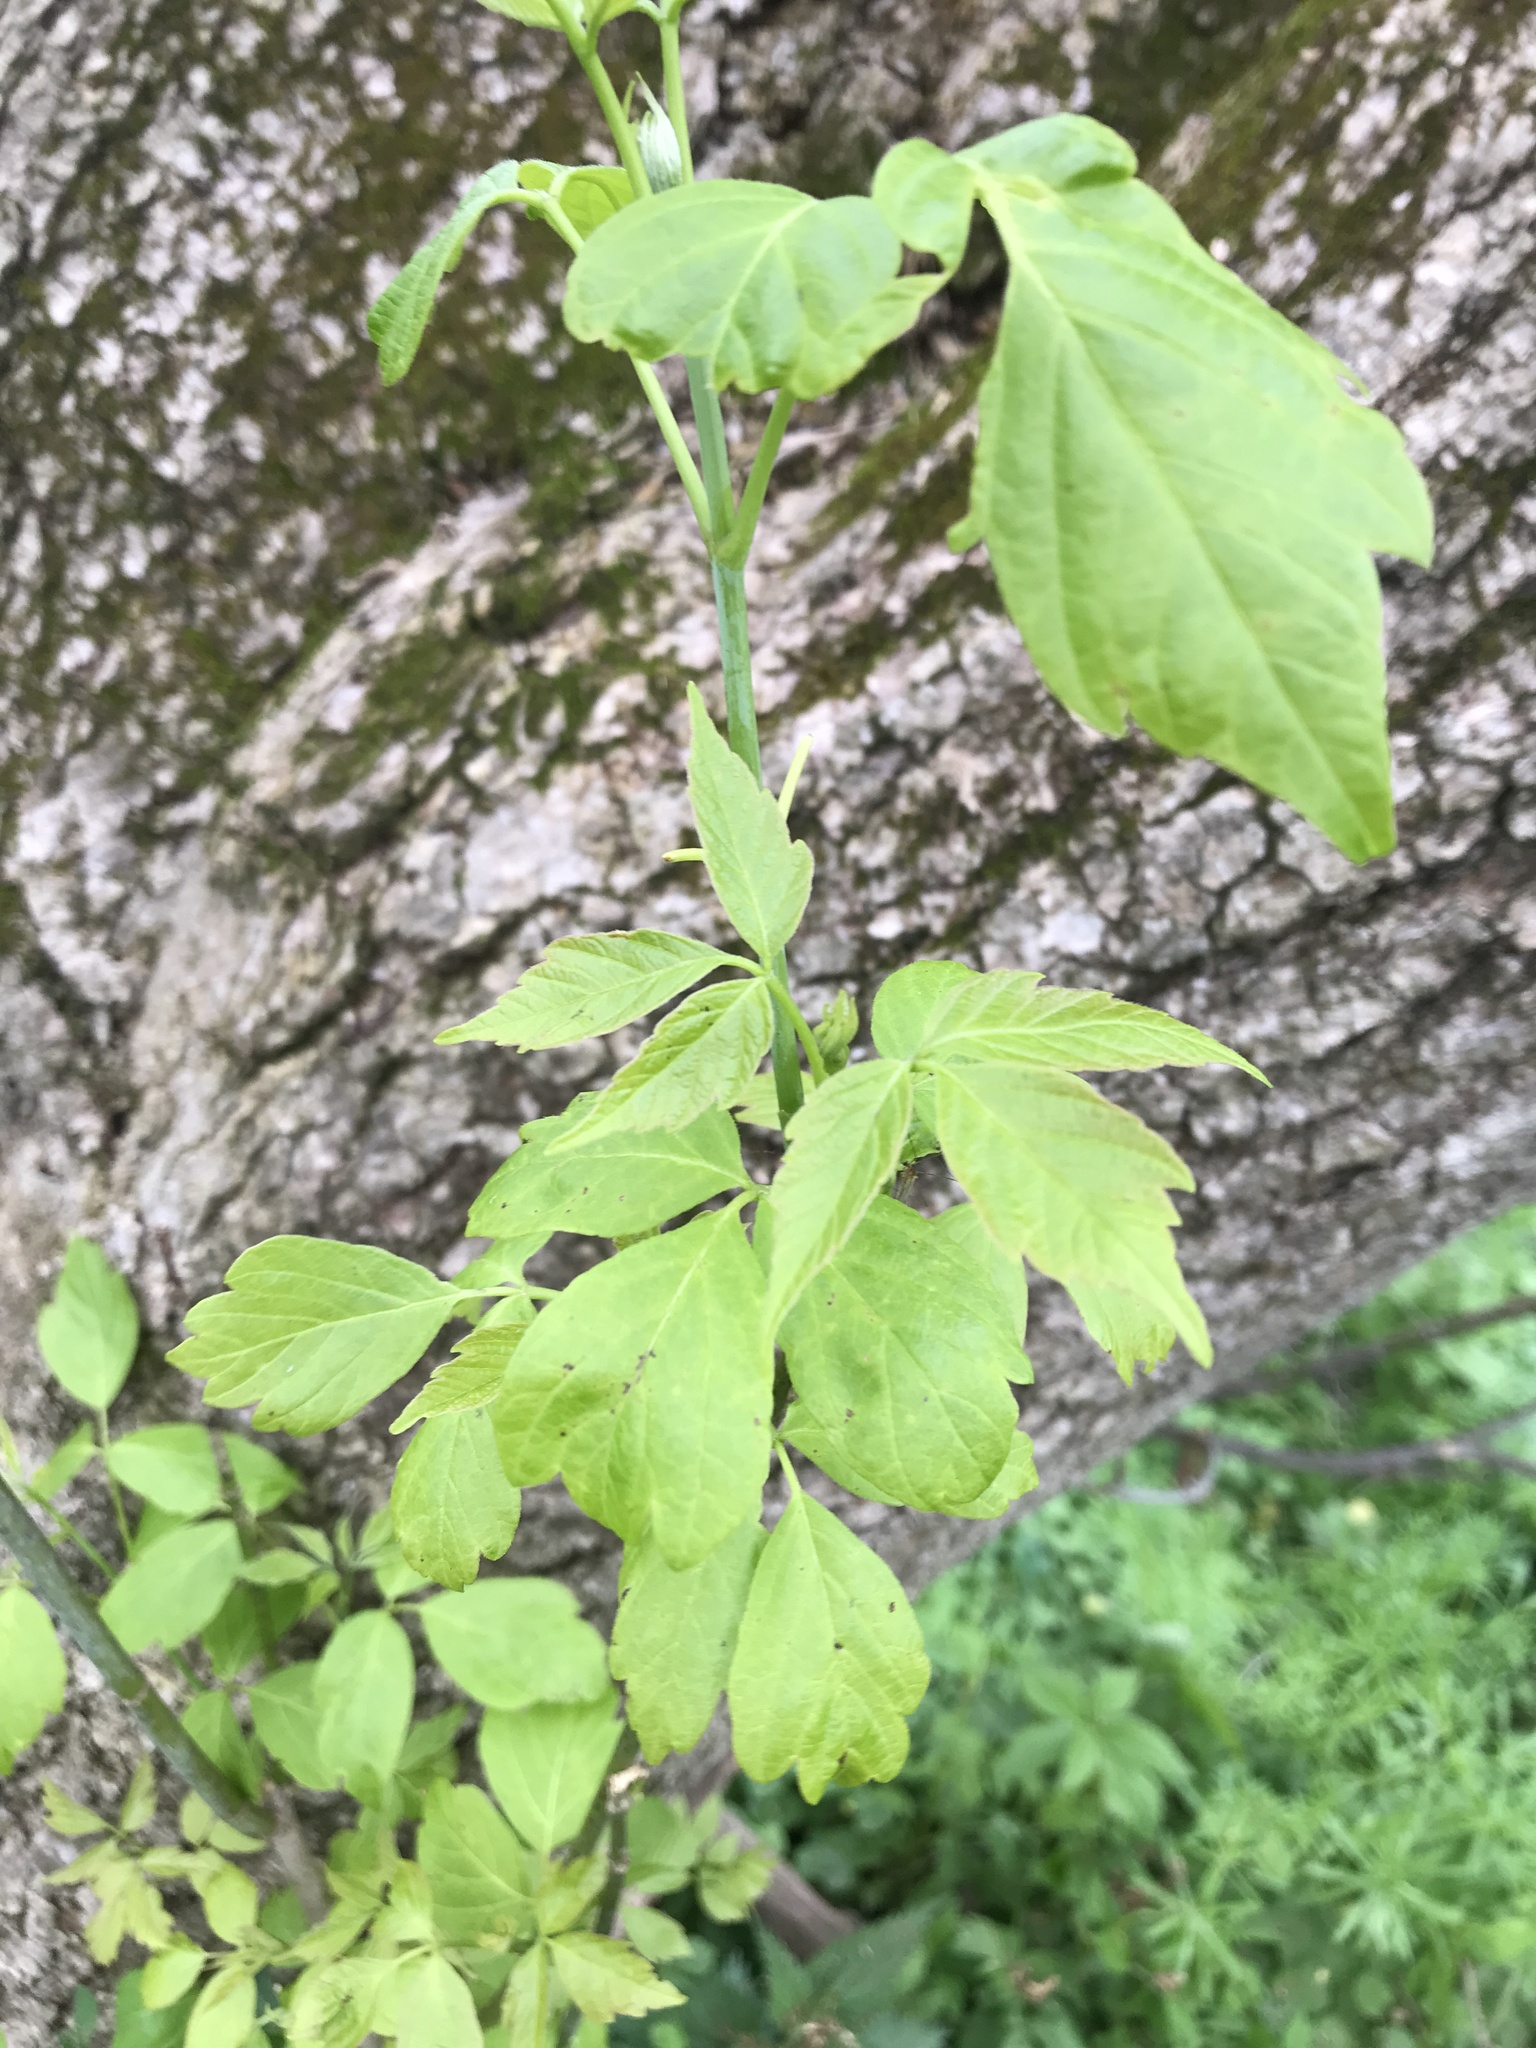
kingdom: Plantae
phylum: Tracheophyta
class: Magnoliopsida
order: Sapindales
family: Sapindaceae
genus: Acer
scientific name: Acer negundo
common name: Ashleaf maple
